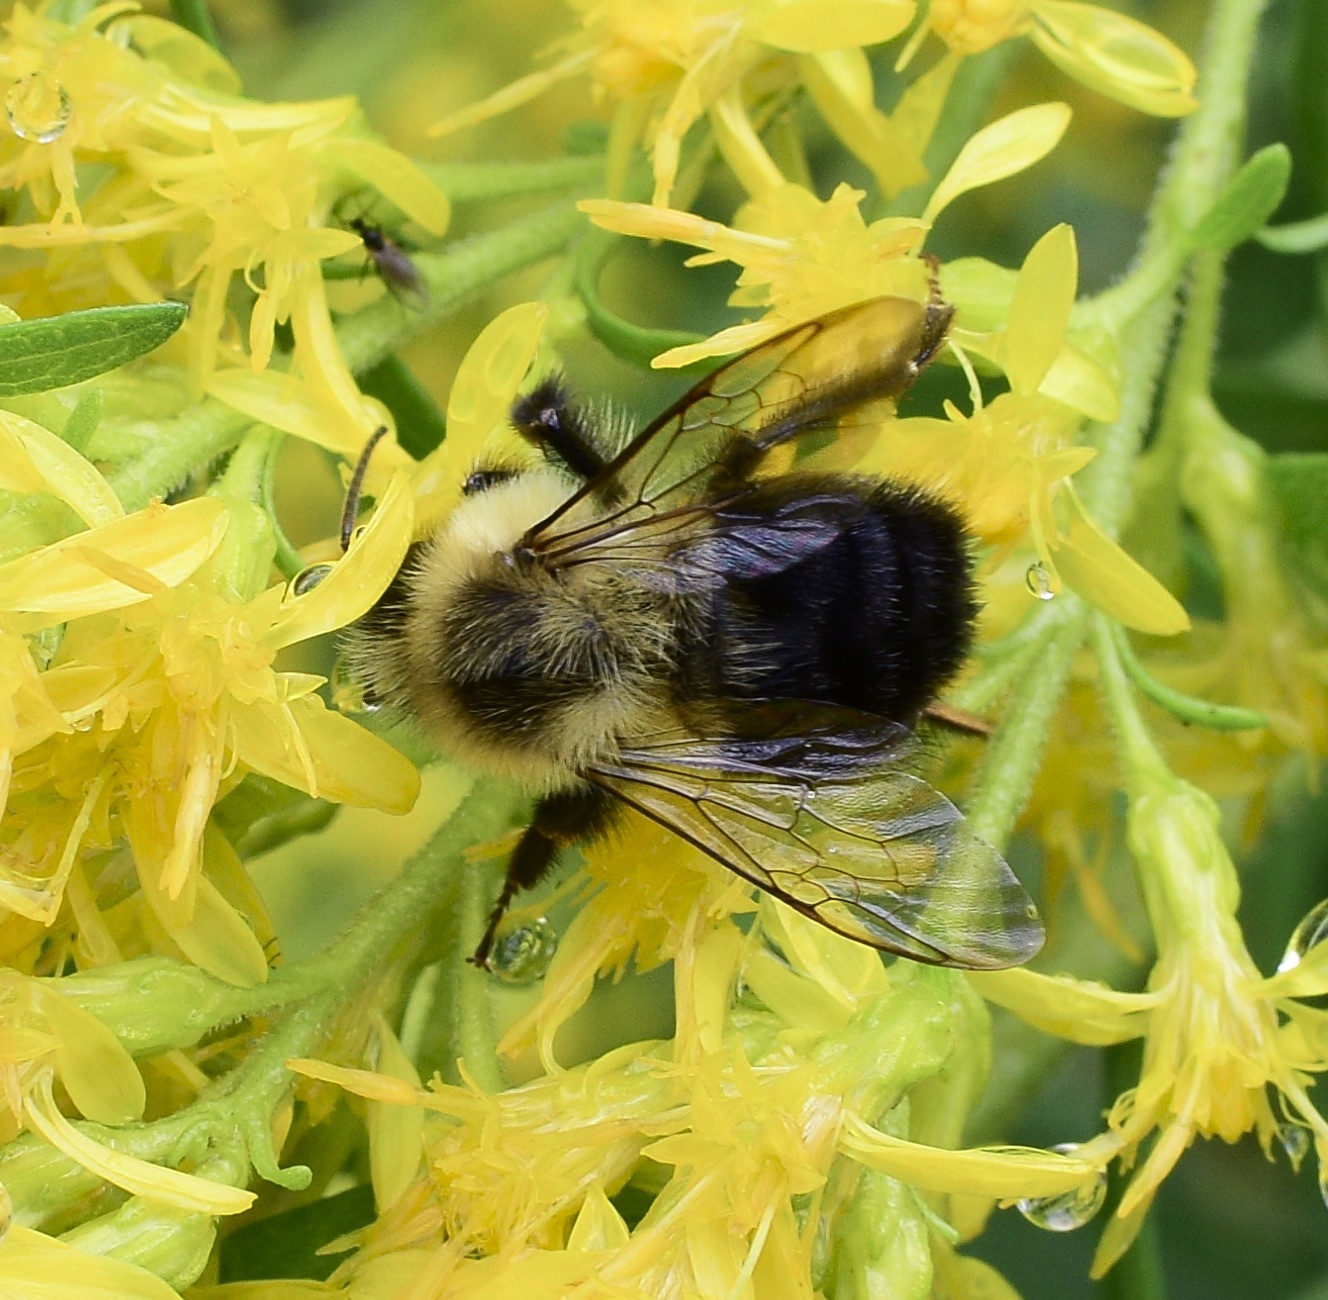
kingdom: Animalia
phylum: Arthropoda
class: Insecta
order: Hymenoptera
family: Apidae
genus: Bombus
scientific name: Bombus impatiens
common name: Common eastern bumble bee
